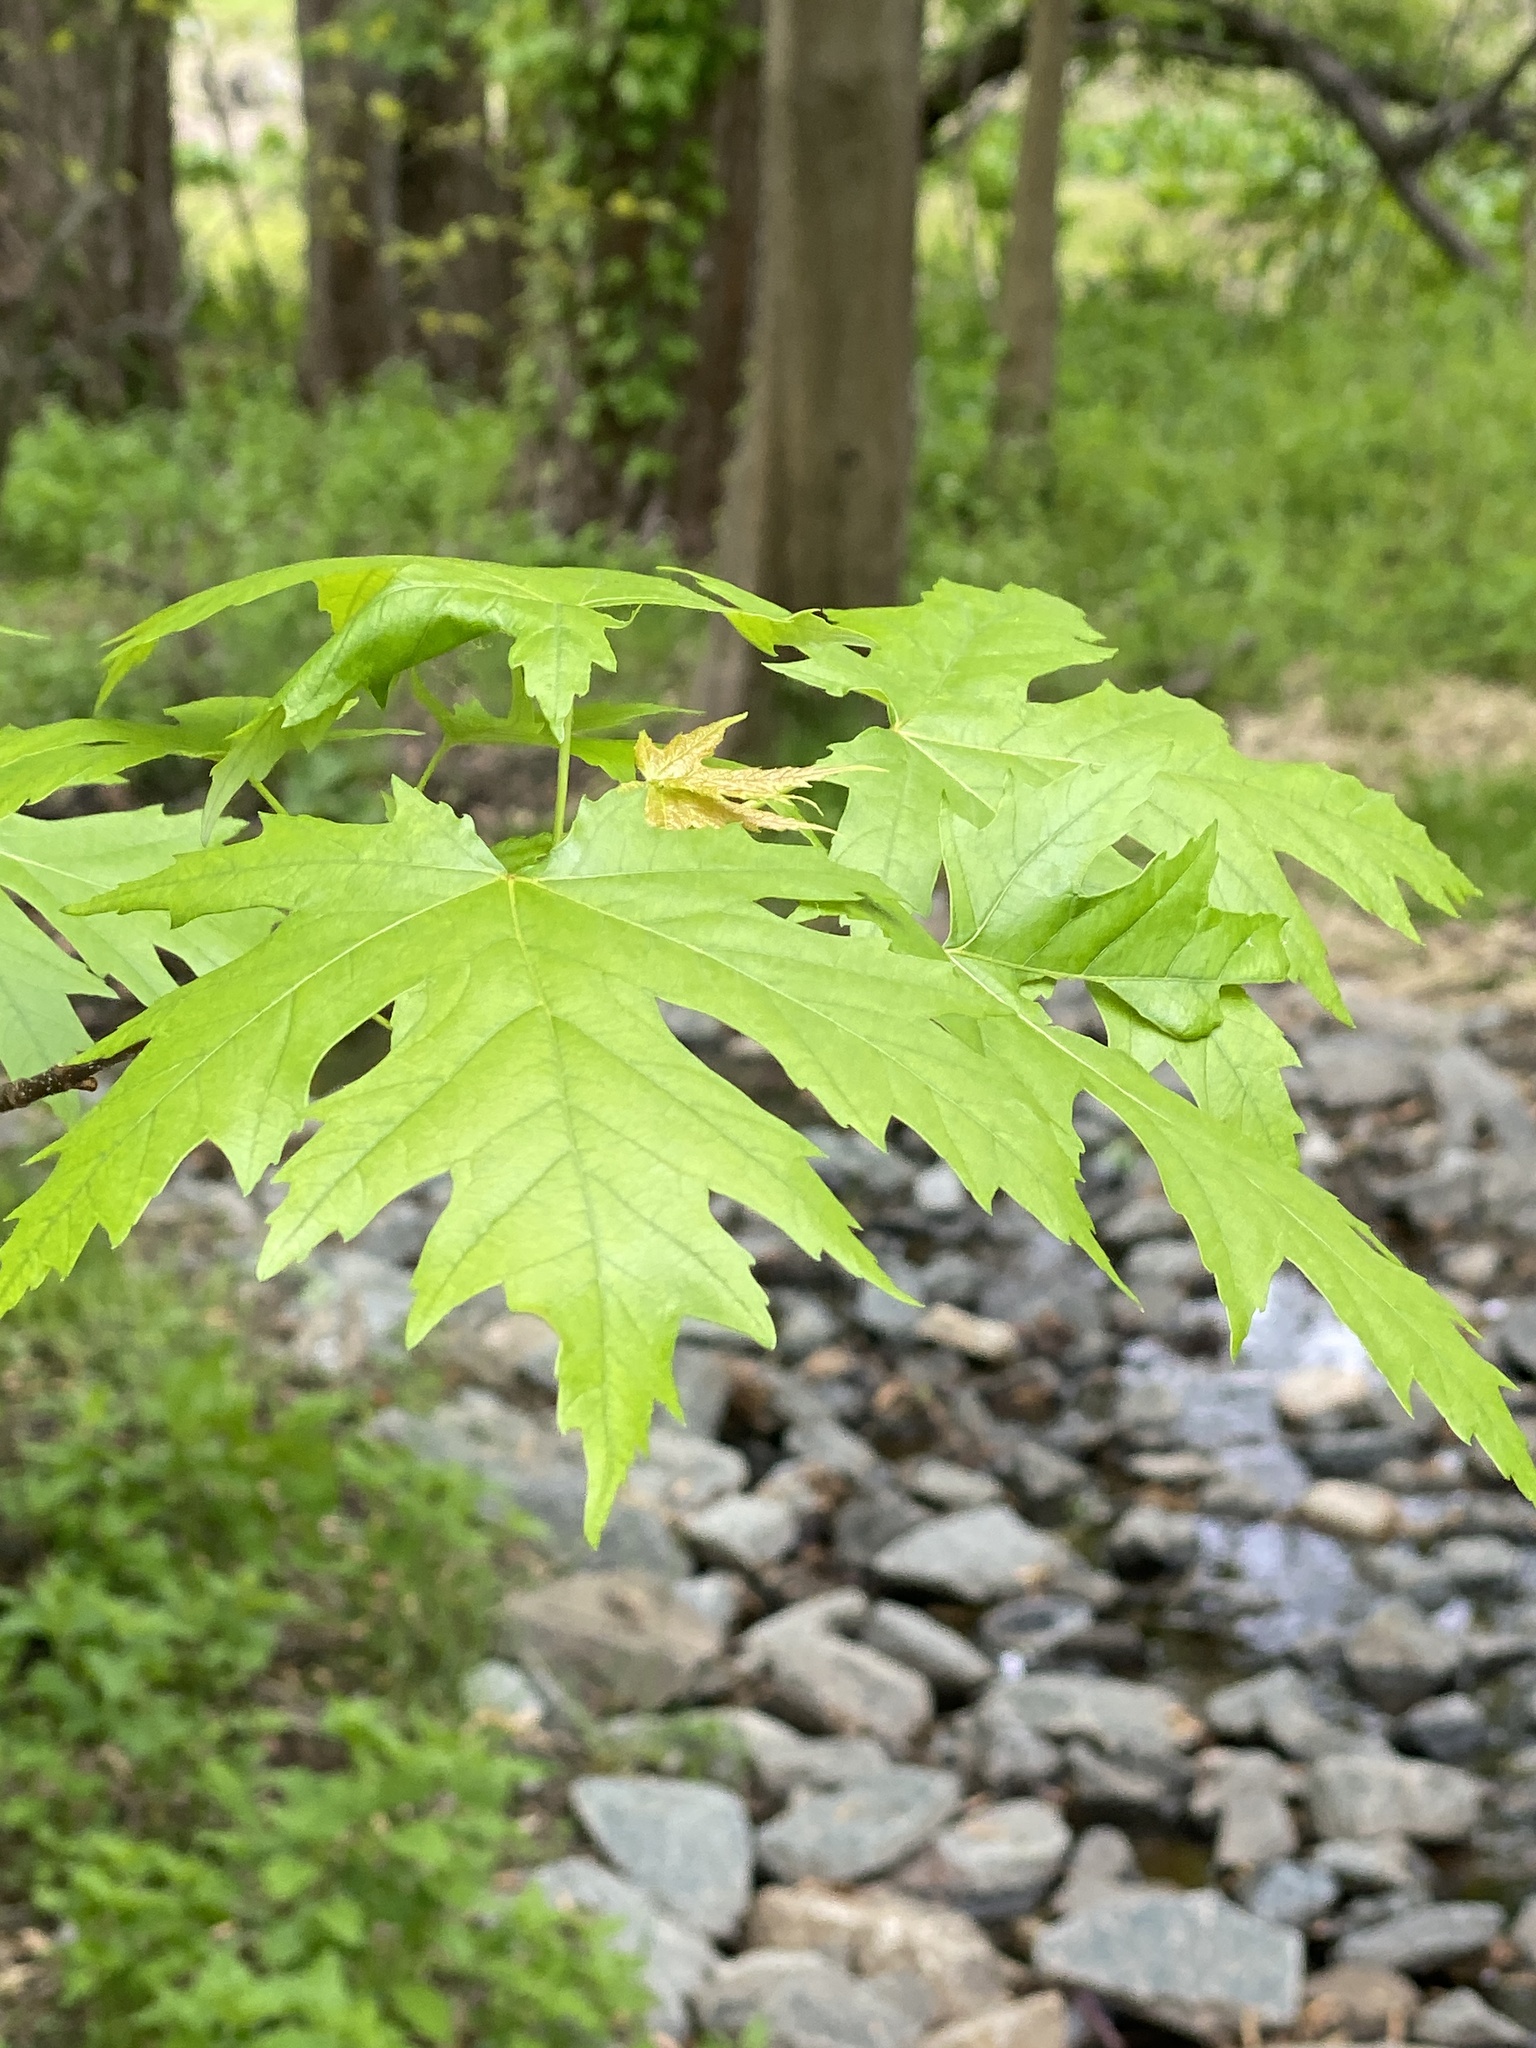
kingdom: Plantae
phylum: Tracheophyta
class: Magnoliopsida
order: Sapindales
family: Sapindaceae
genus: Acer
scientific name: Acer saccharinum
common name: Silver maple
